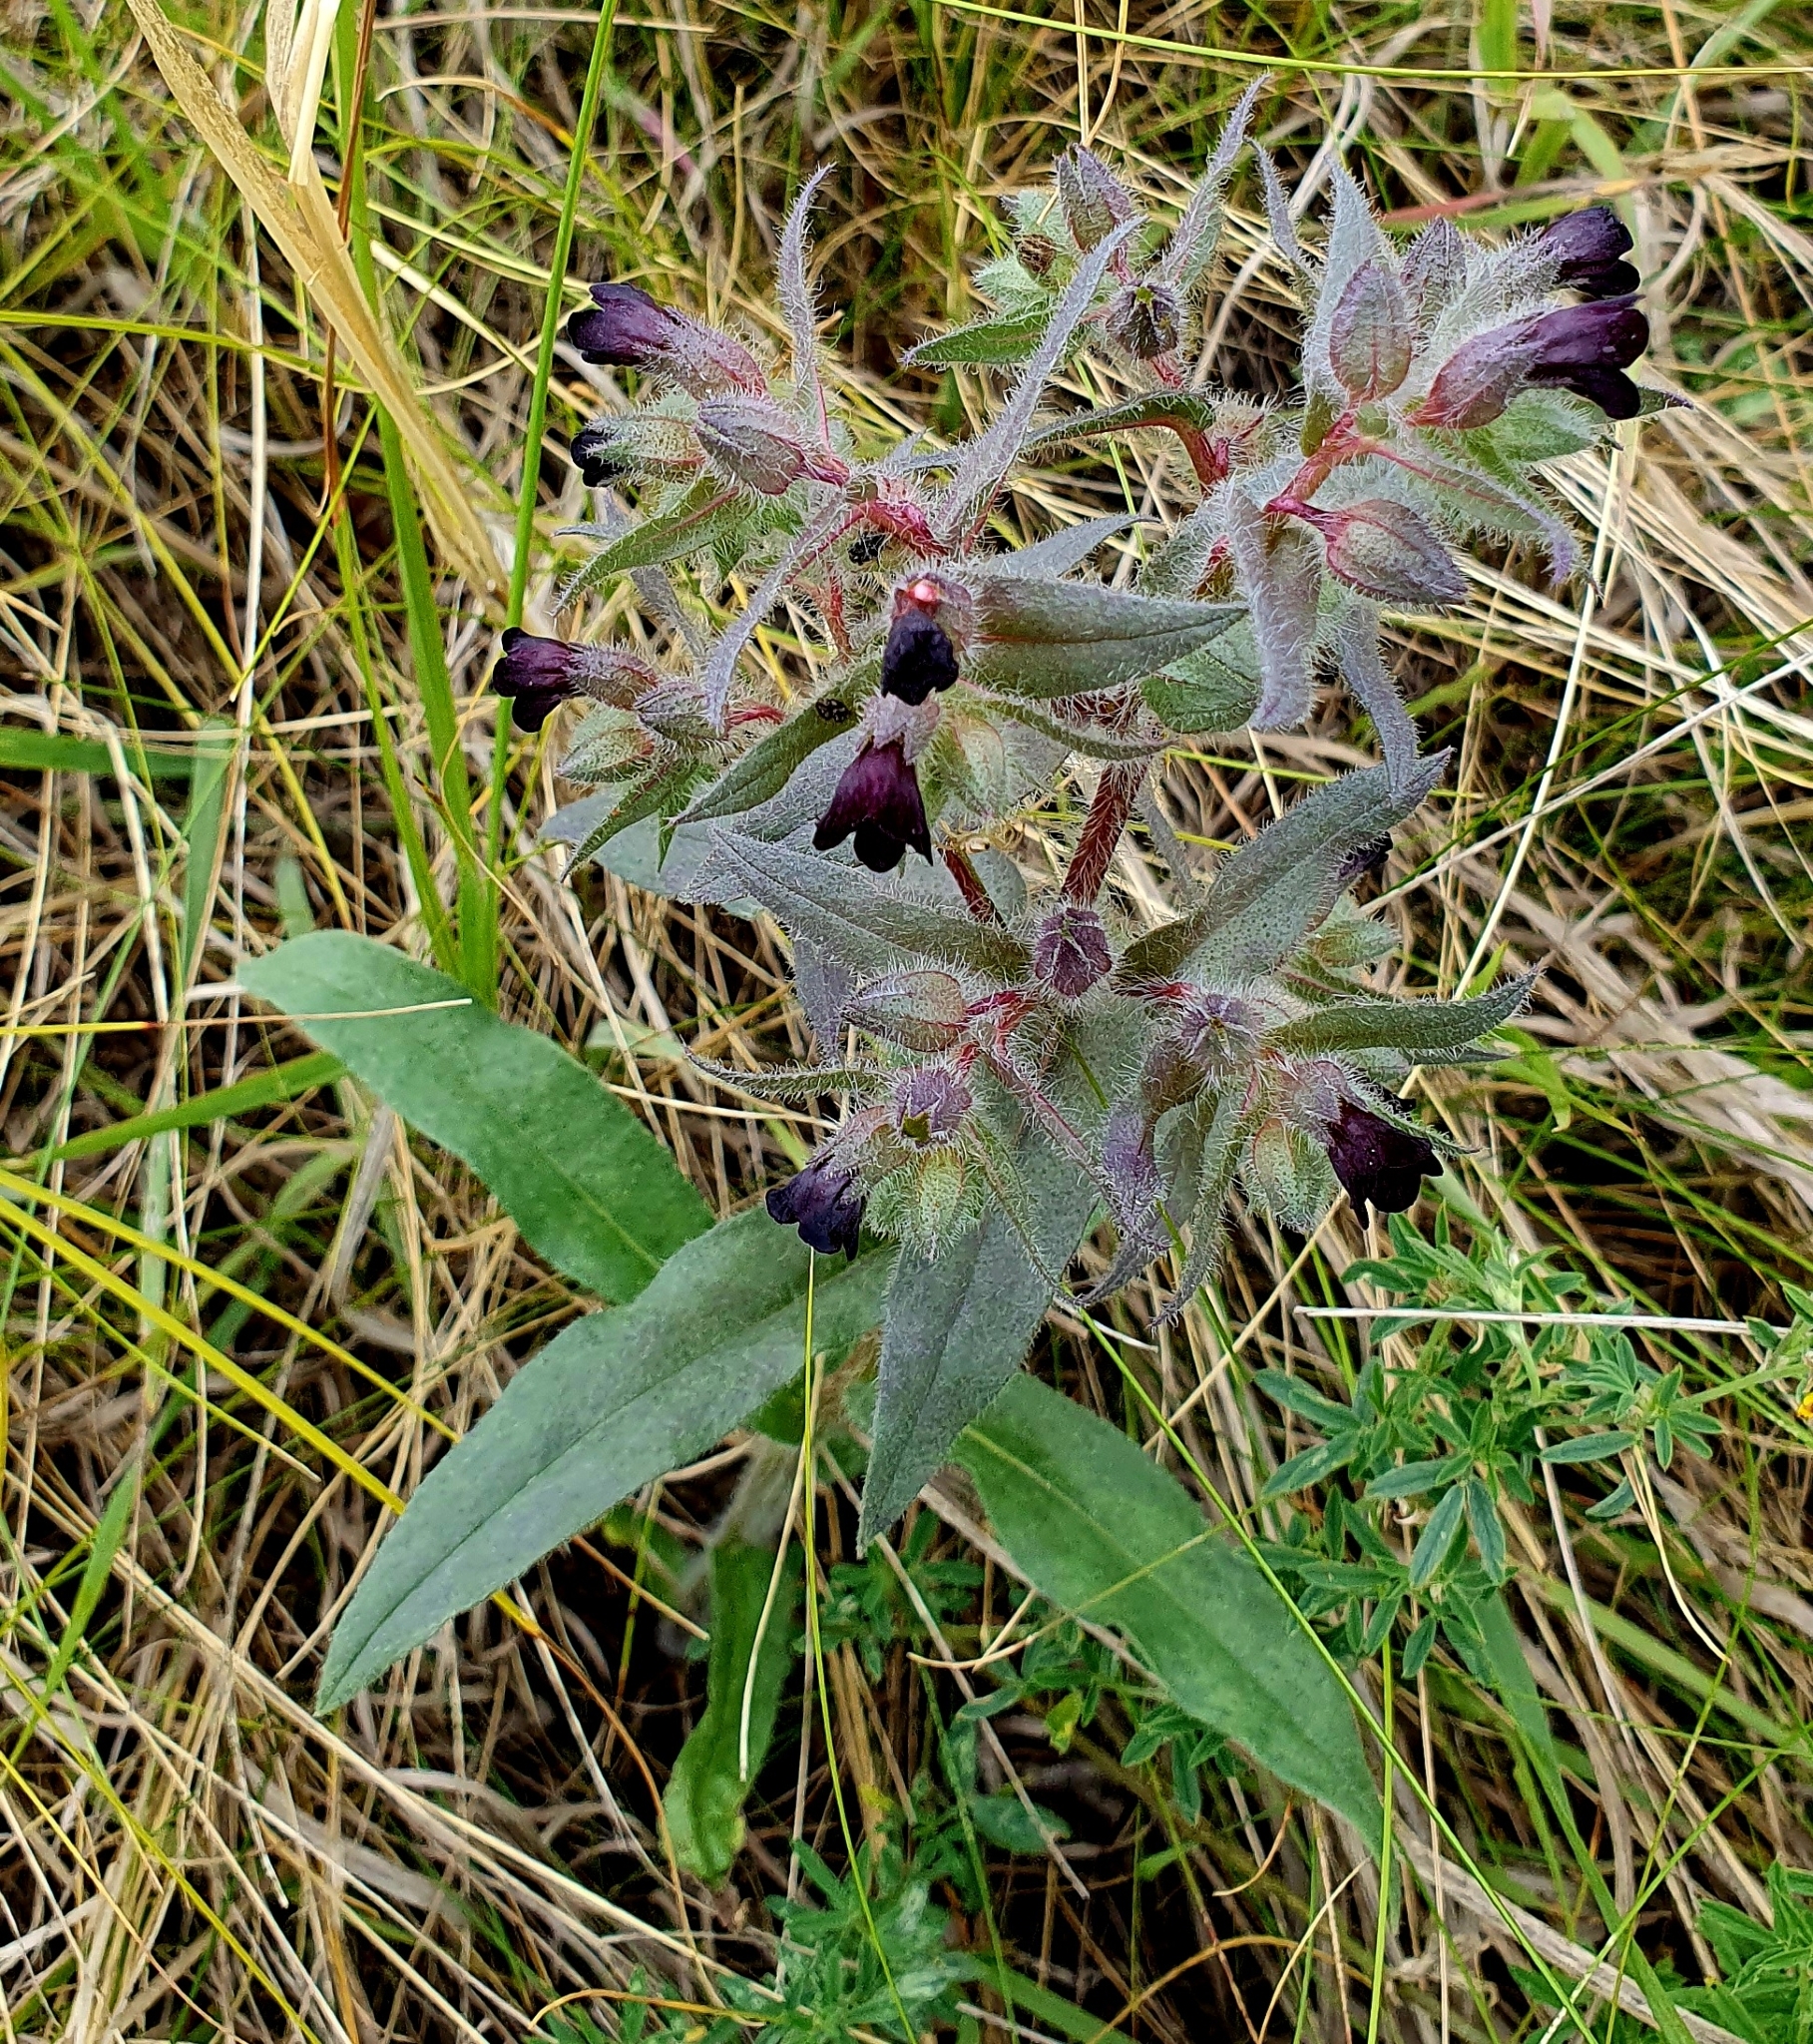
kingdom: Plantae
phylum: Tracheophyta
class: Magnoliopsida
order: Boraginales
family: Boraginaceae
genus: Nonea
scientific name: Nonea pulla
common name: Brown nonea
